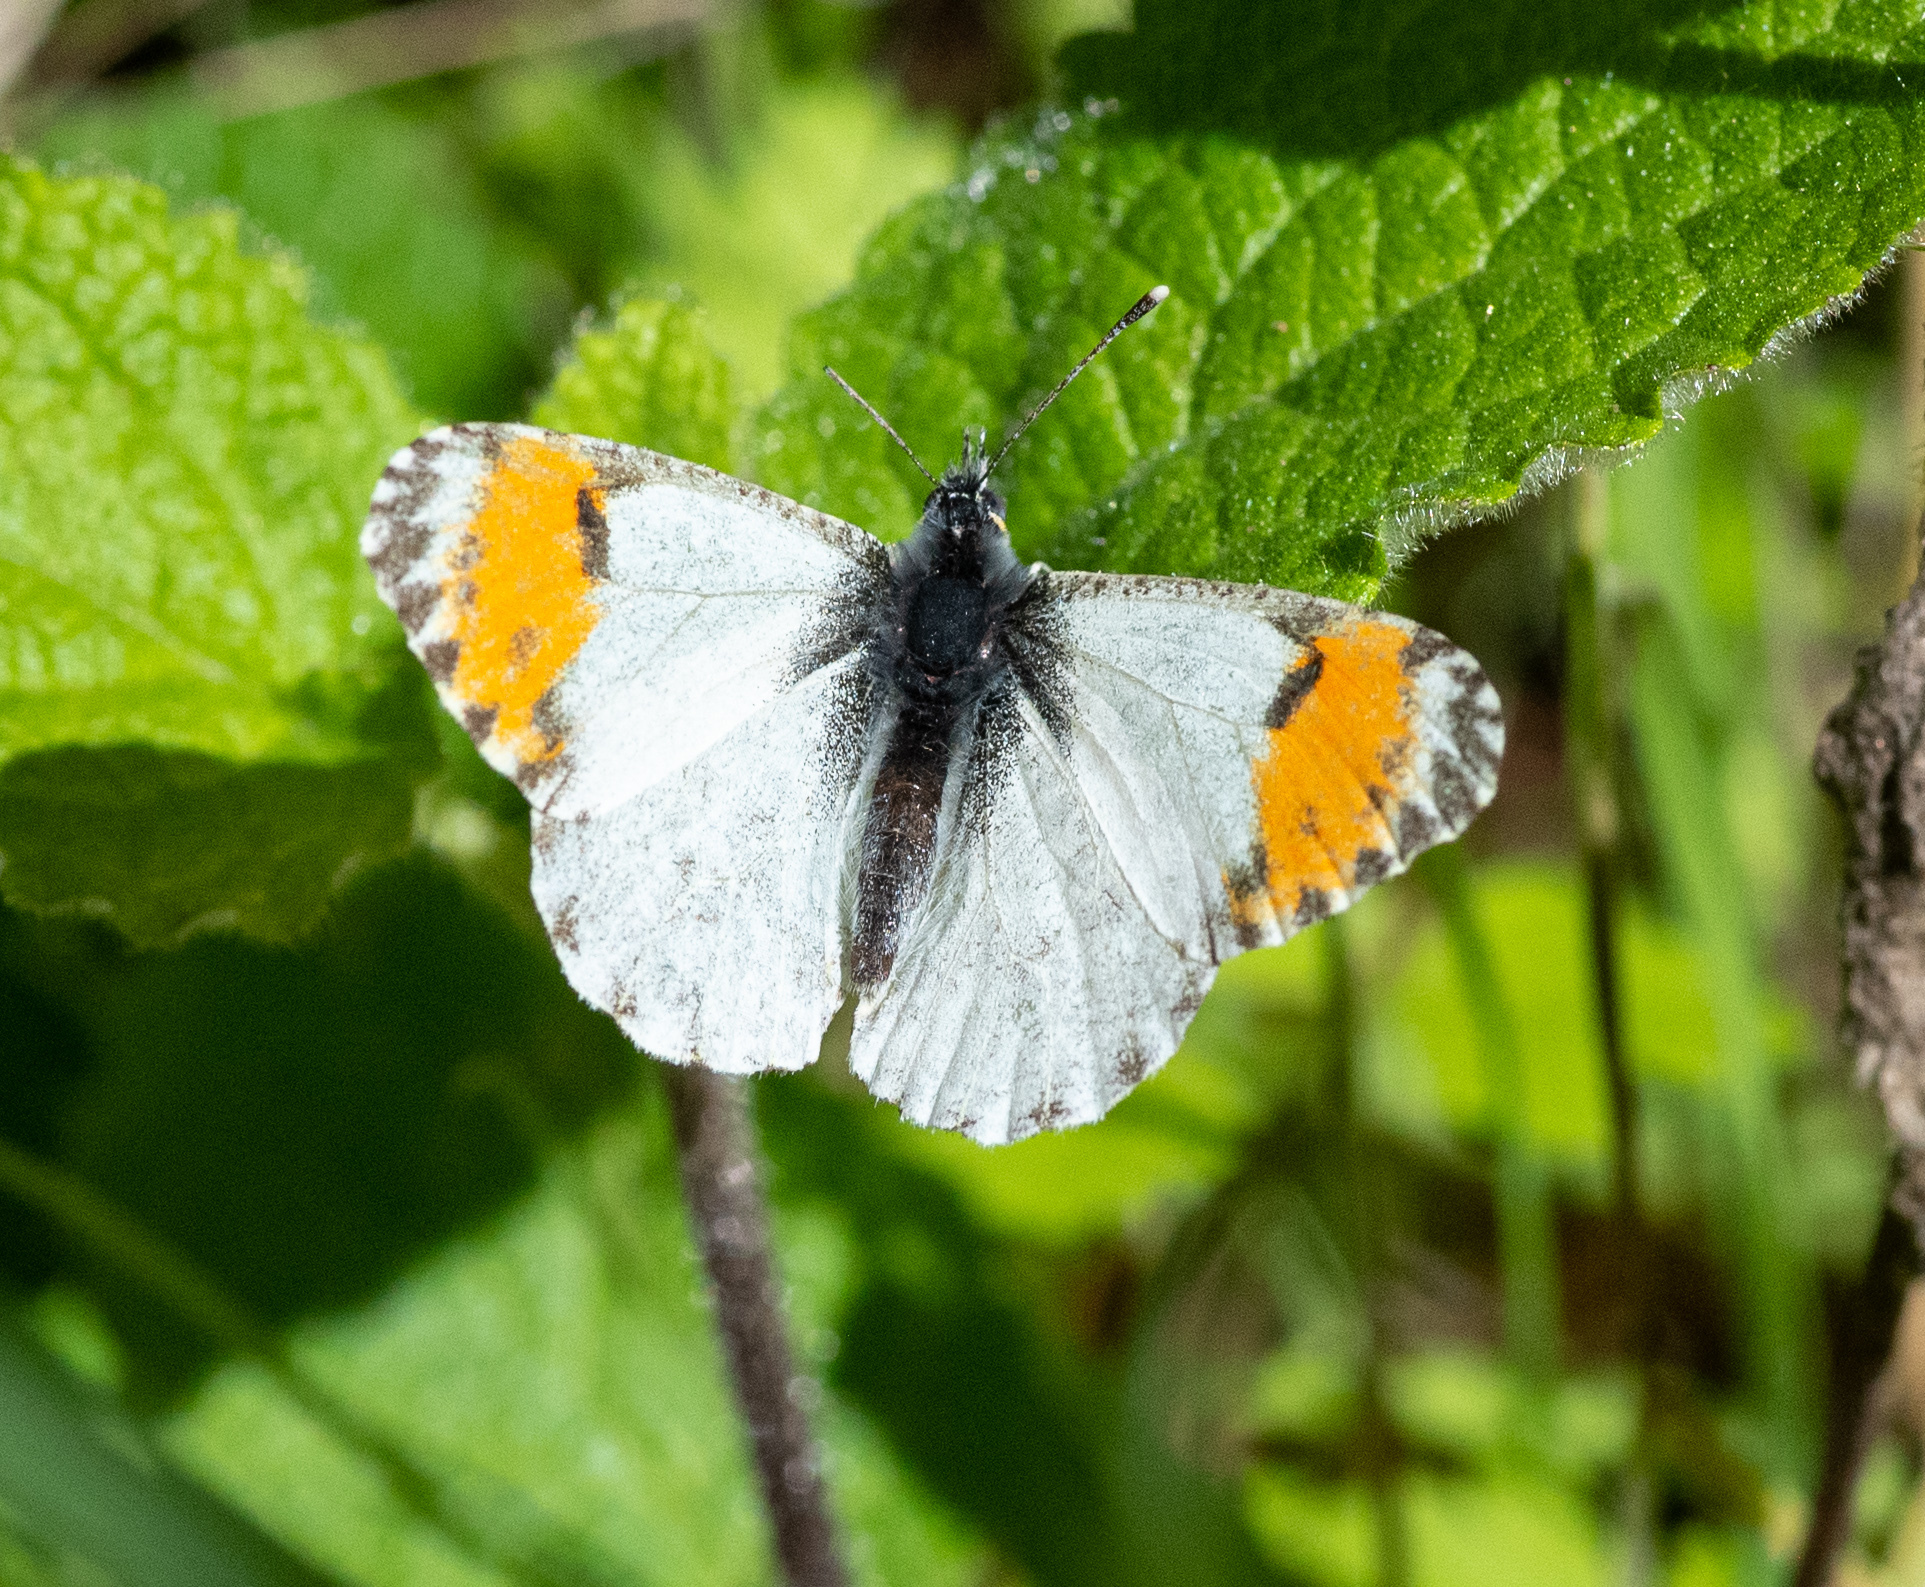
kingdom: Animalia
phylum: Arthropoda
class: Insecta
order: Lepidoptera
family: Pieridae
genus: Anthocharis
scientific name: Anthocharis sara
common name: Sara's orangetip
